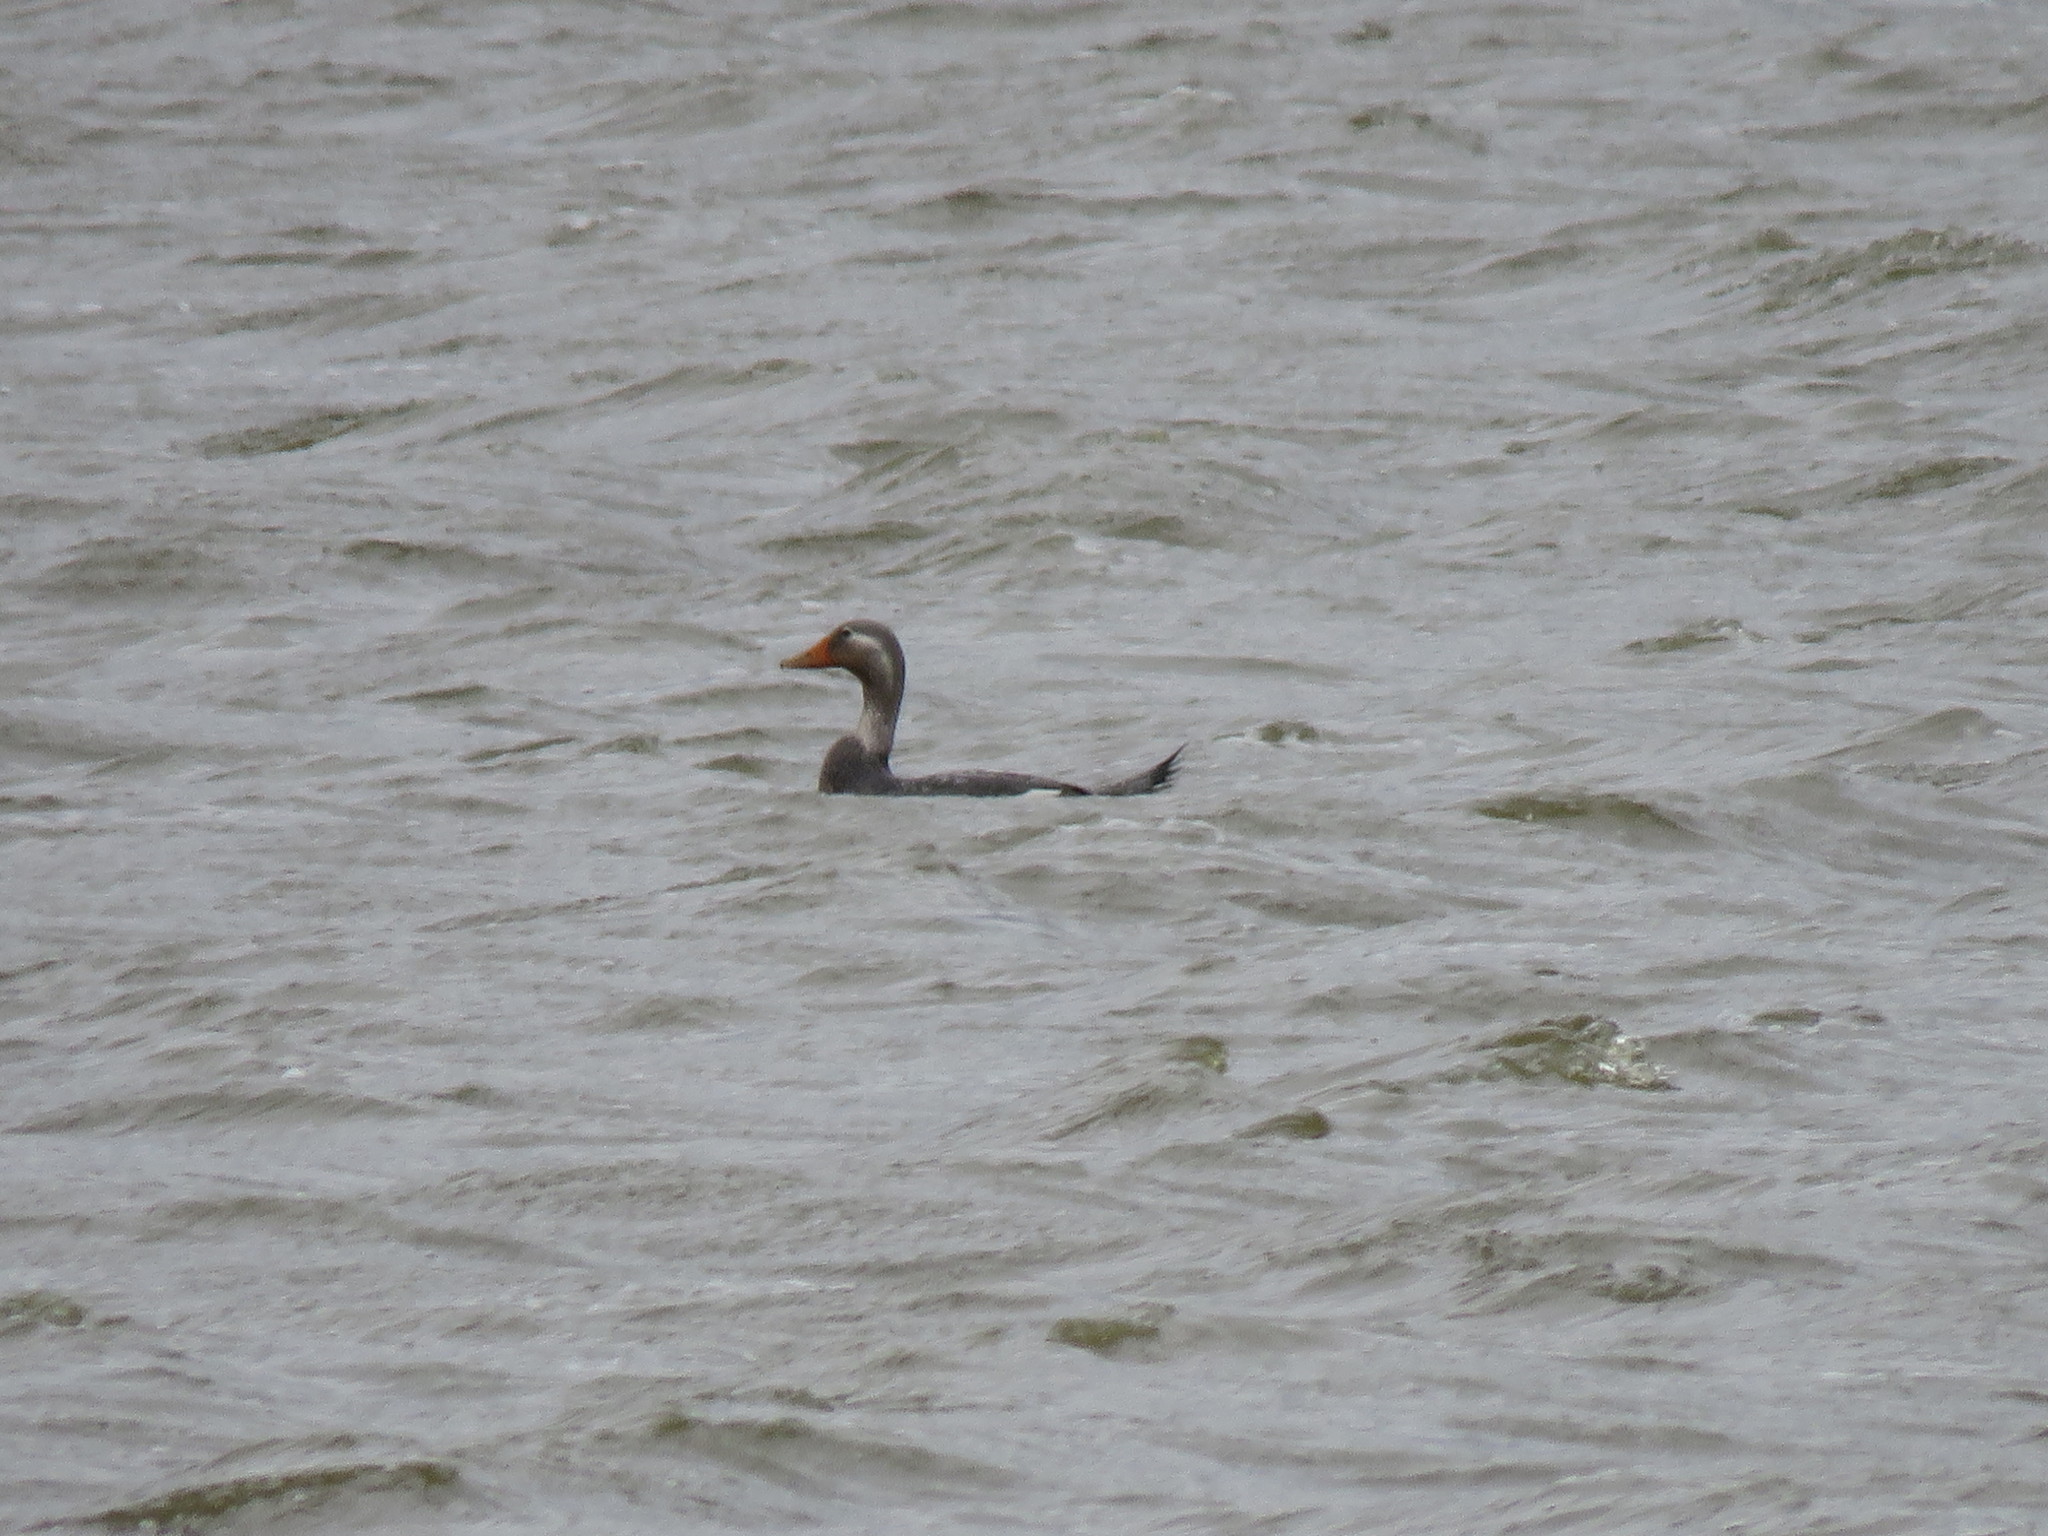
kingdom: Animalia
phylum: Chordata
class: Aves
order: Anseriformes
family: Anatidae
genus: Tachyeres
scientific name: Tachyeres patachonicus
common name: Flying steamer duck
